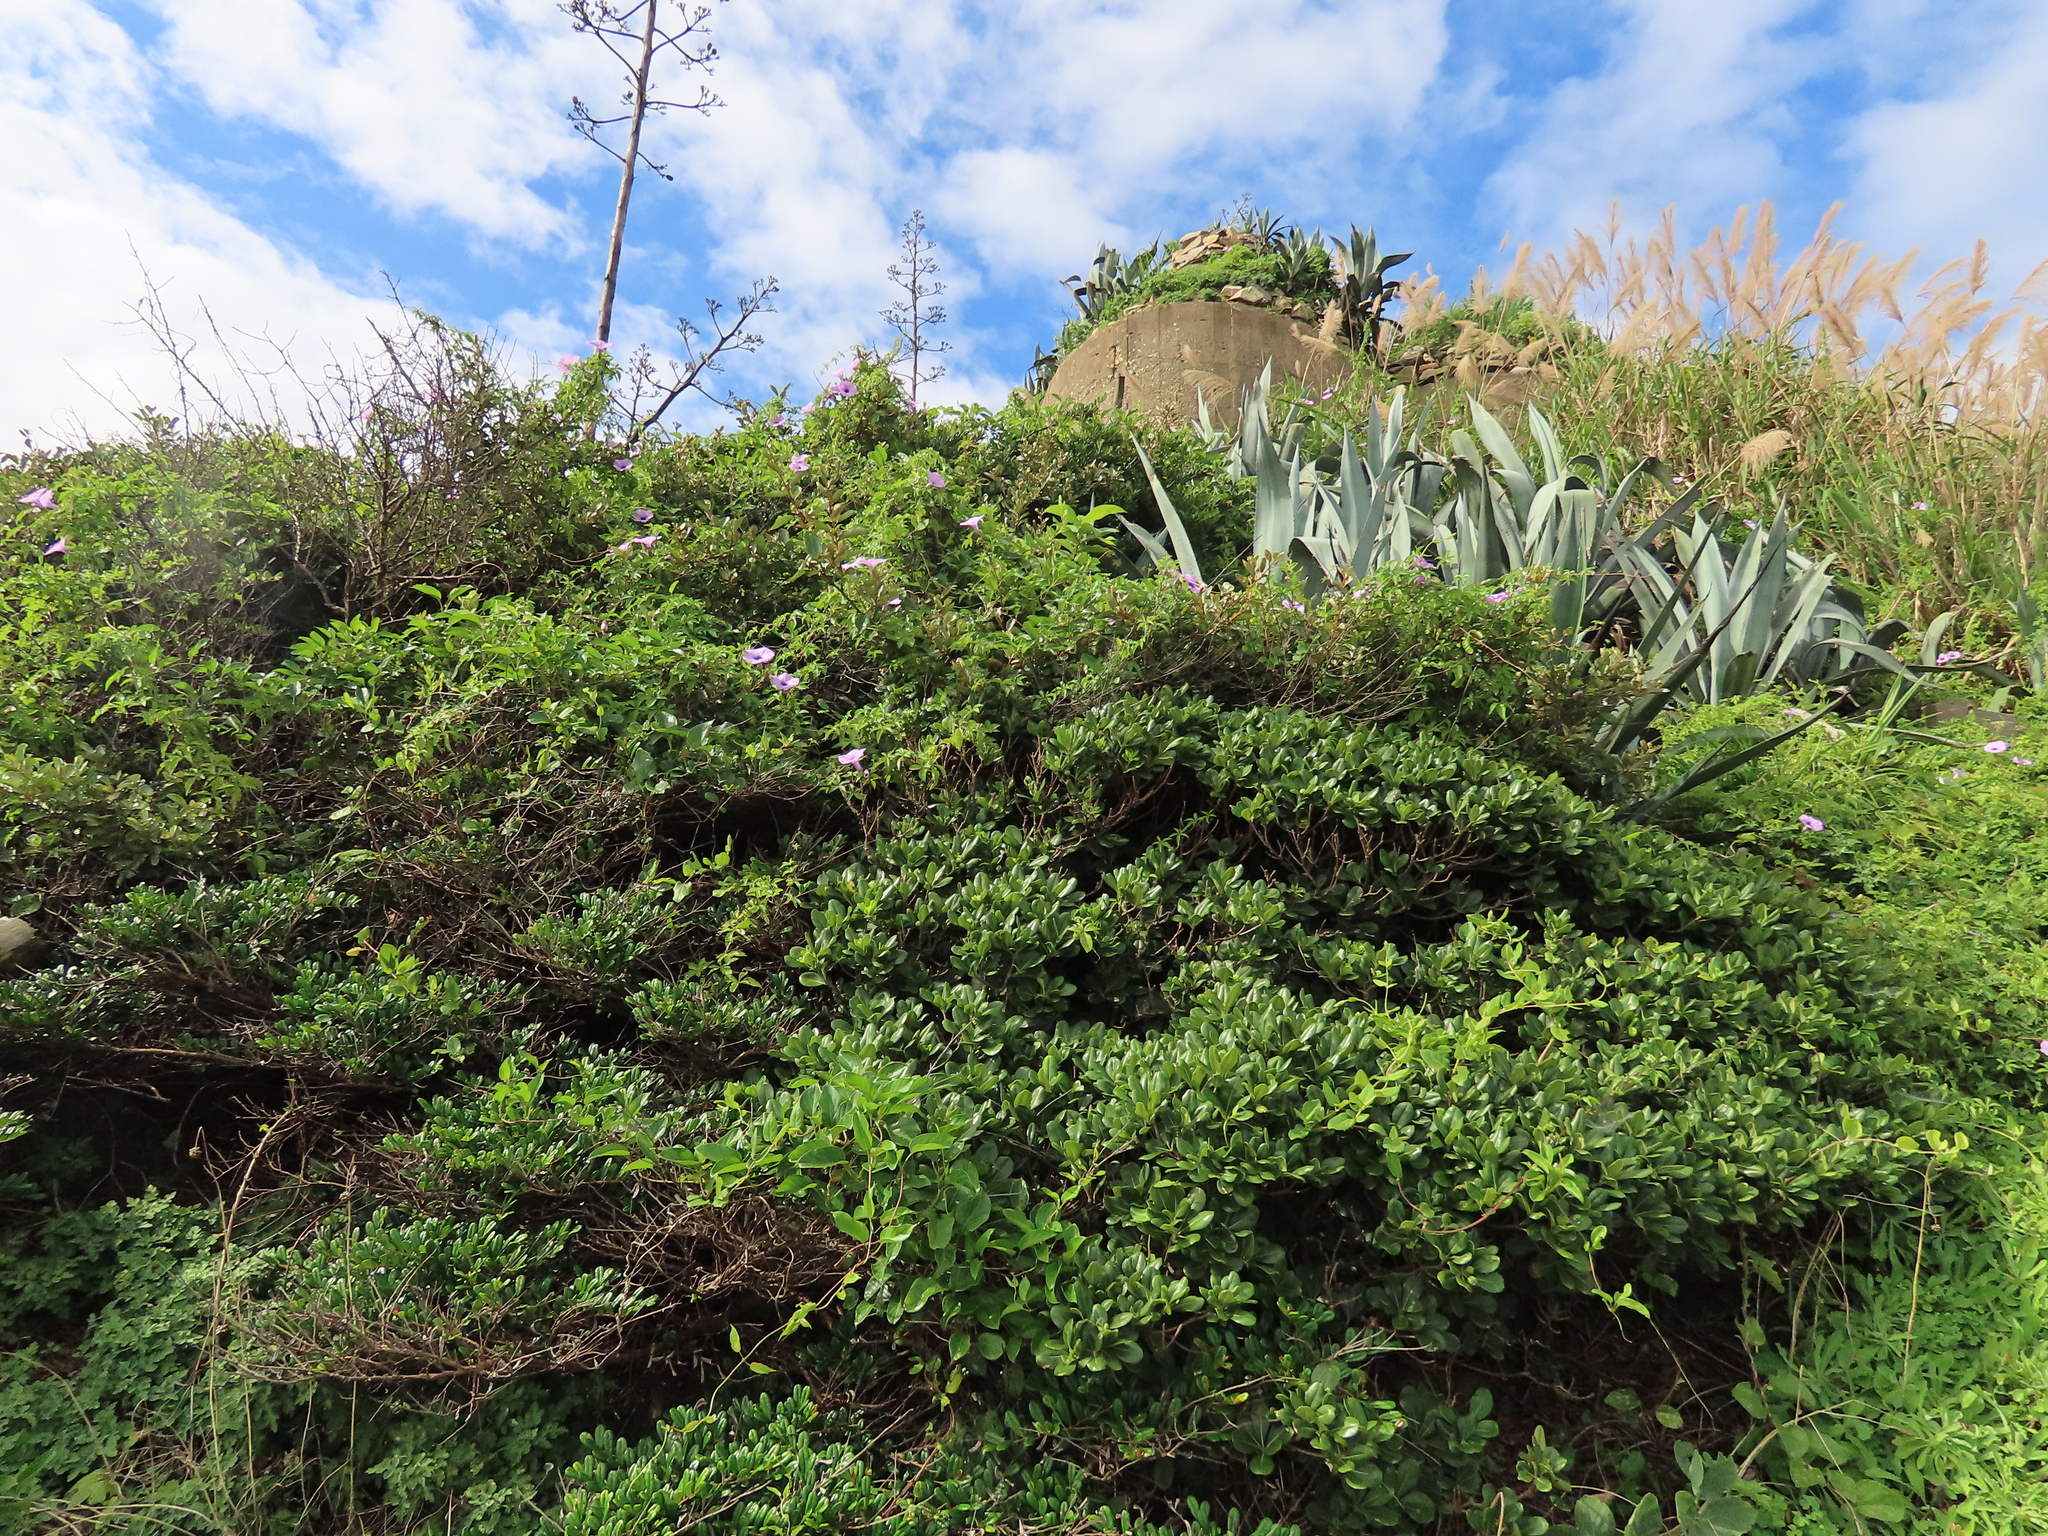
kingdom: Plantae
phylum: Tracheophyta
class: Magnoliopsida
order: Apiales
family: Pittosporaceae
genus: Pittosporum
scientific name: Pittosporum tobira
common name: Japanese cheesewood
